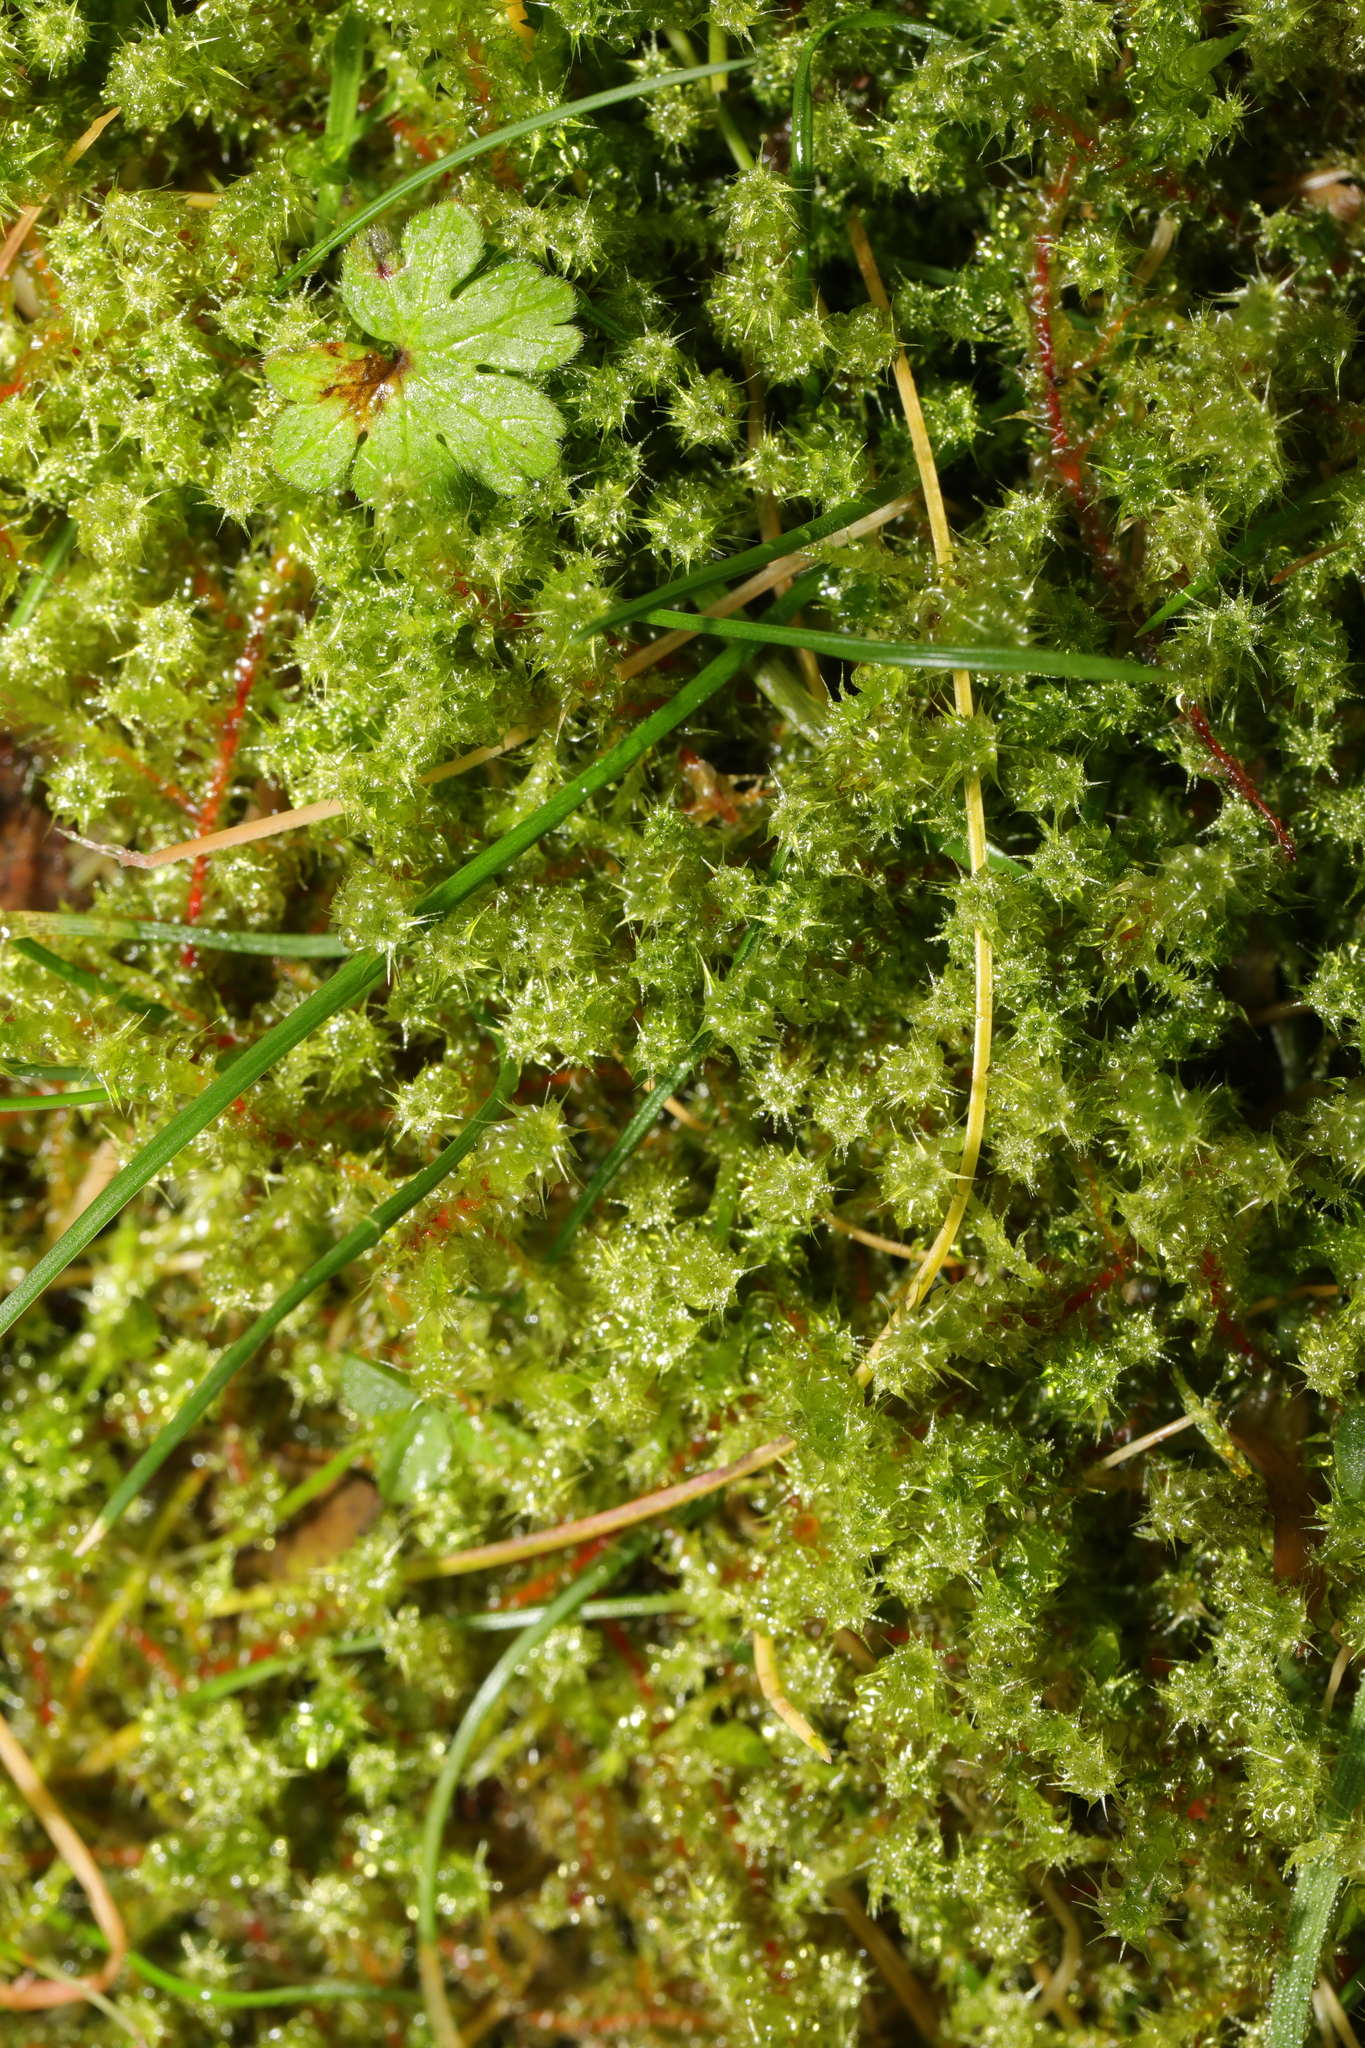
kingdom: Plantae
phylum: Bryophyta
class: Bryopsida
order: Hypnales
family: Hylocomiaceae
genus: Rhytidiadelphus
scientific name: Rhytidiadelphus squarrosus
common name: Springy turf-moss
